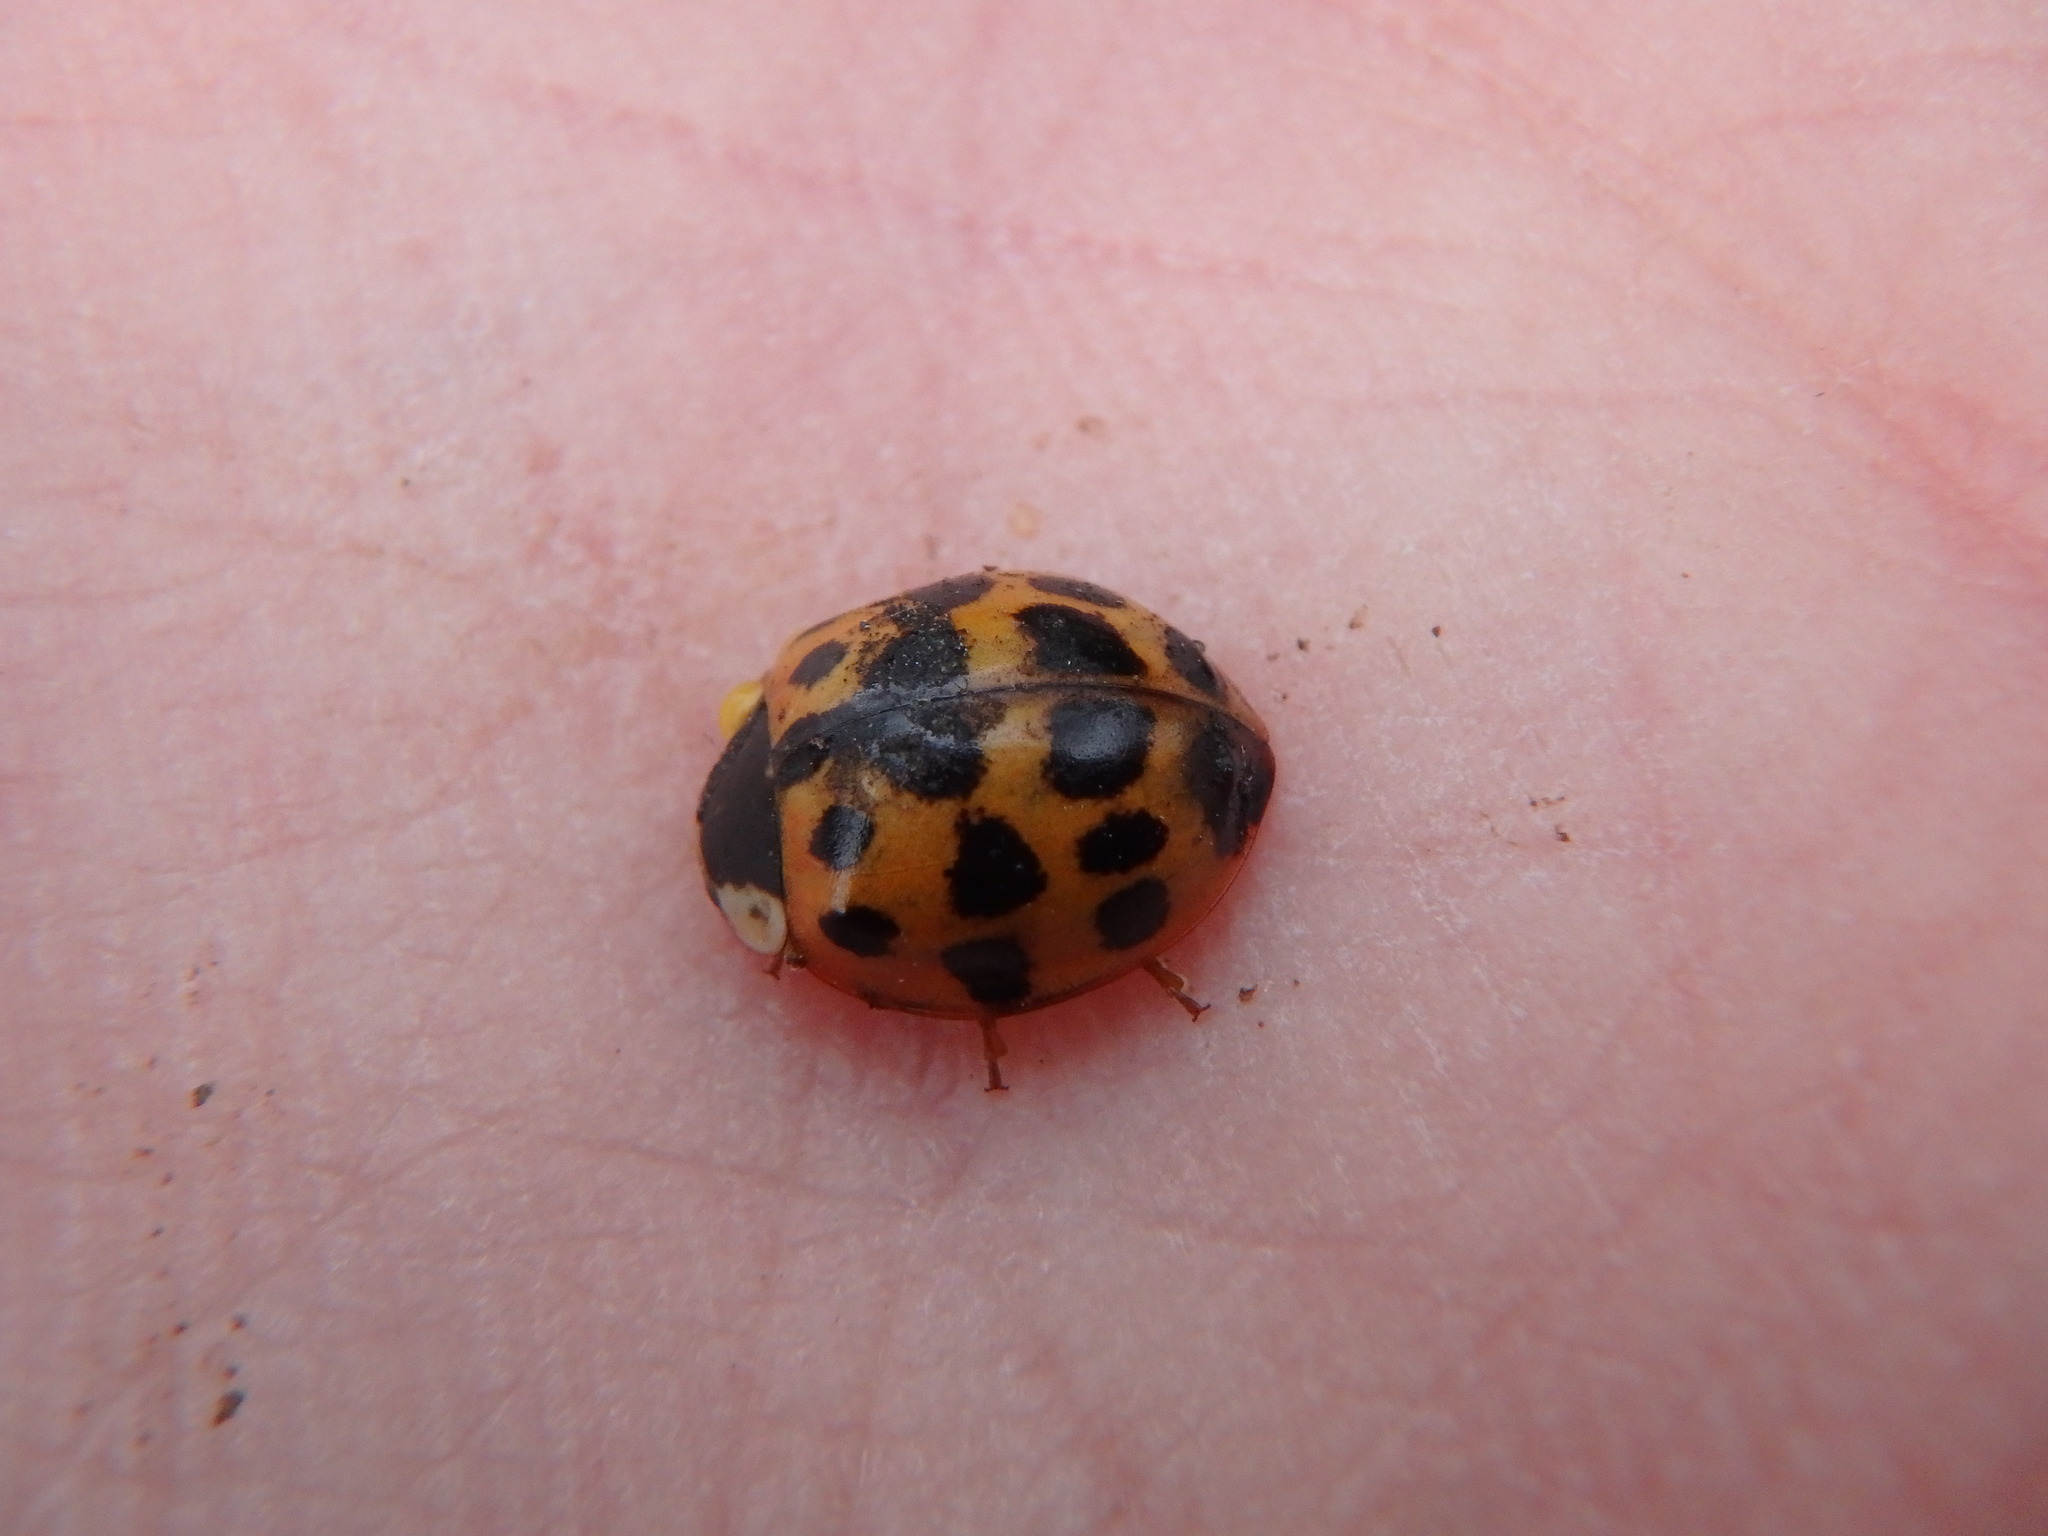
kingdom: Animalia
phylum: Arthropoda
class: Insecta
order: Coleoptera
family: Coccinellidae
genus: Harmonia
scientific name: Harmonia axyridis
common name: Harlequin ladybird
